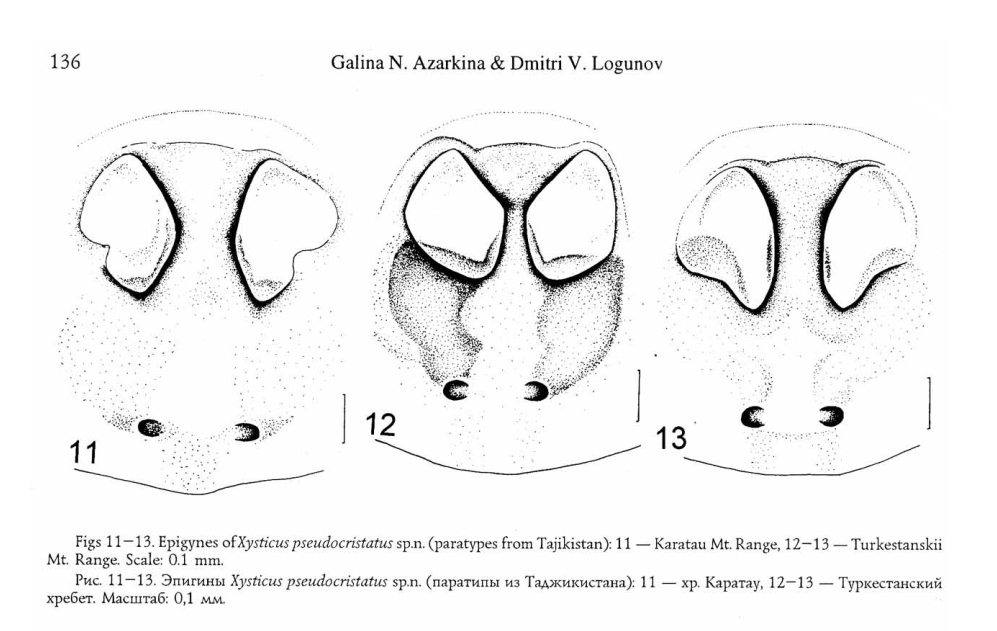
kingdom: Animalia
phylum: Arthropoda
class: Arachnida
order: Araneae
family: Thomisidae
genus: Xysticus
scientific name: Xysticus pseudocristatus
